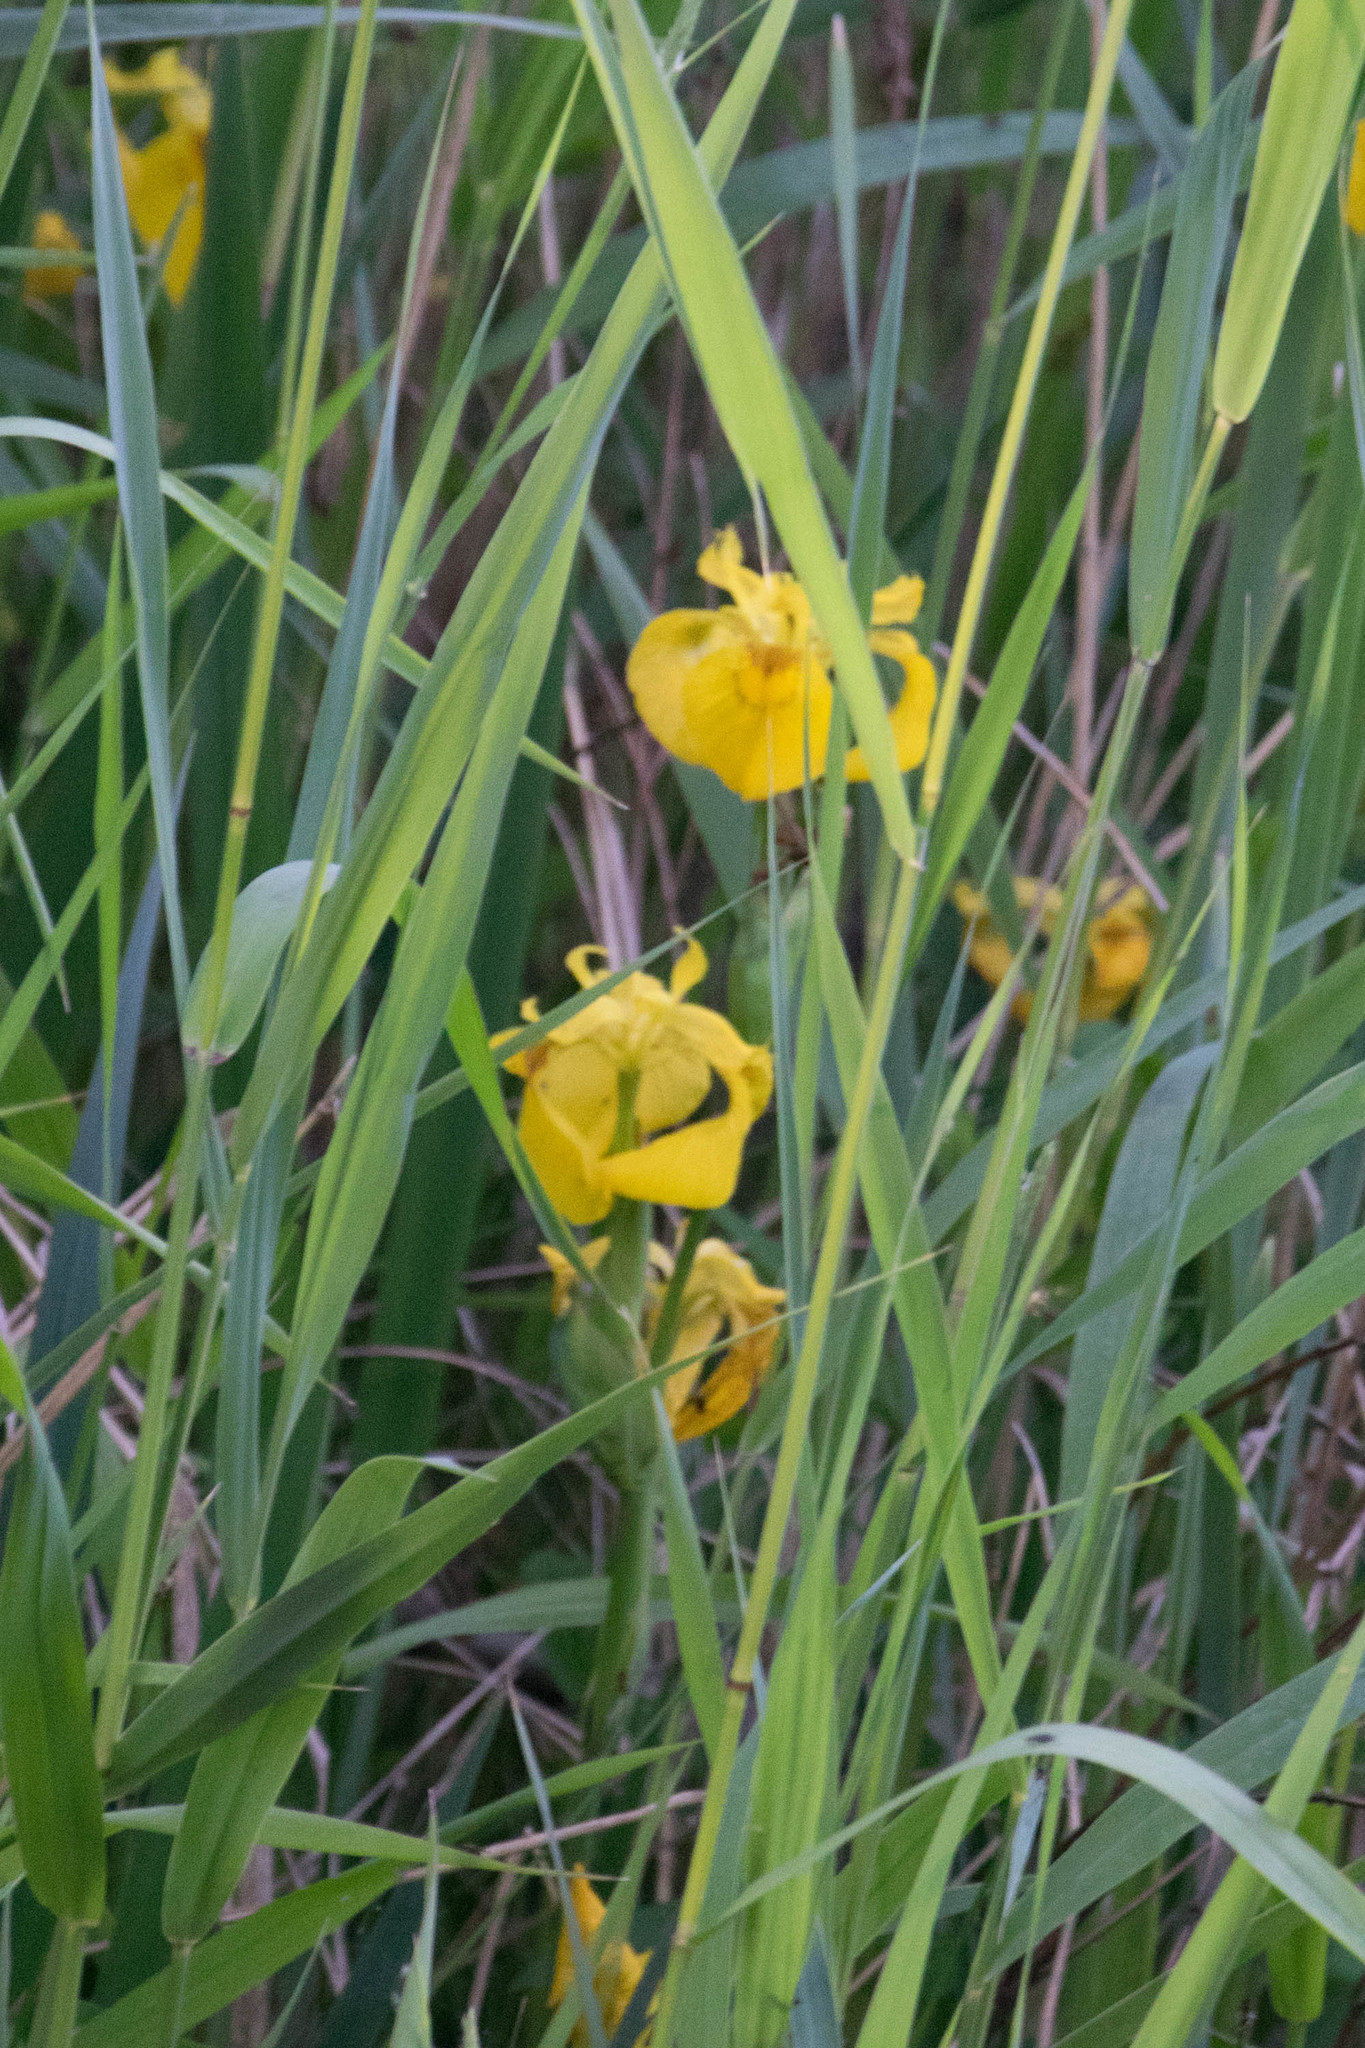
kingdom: Plantae
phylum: Tracheophyta
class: Liliopsida
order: Asparagales
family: Iridaceae
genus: Iris
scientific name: Iris pseudacorus
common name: Yellow flag
